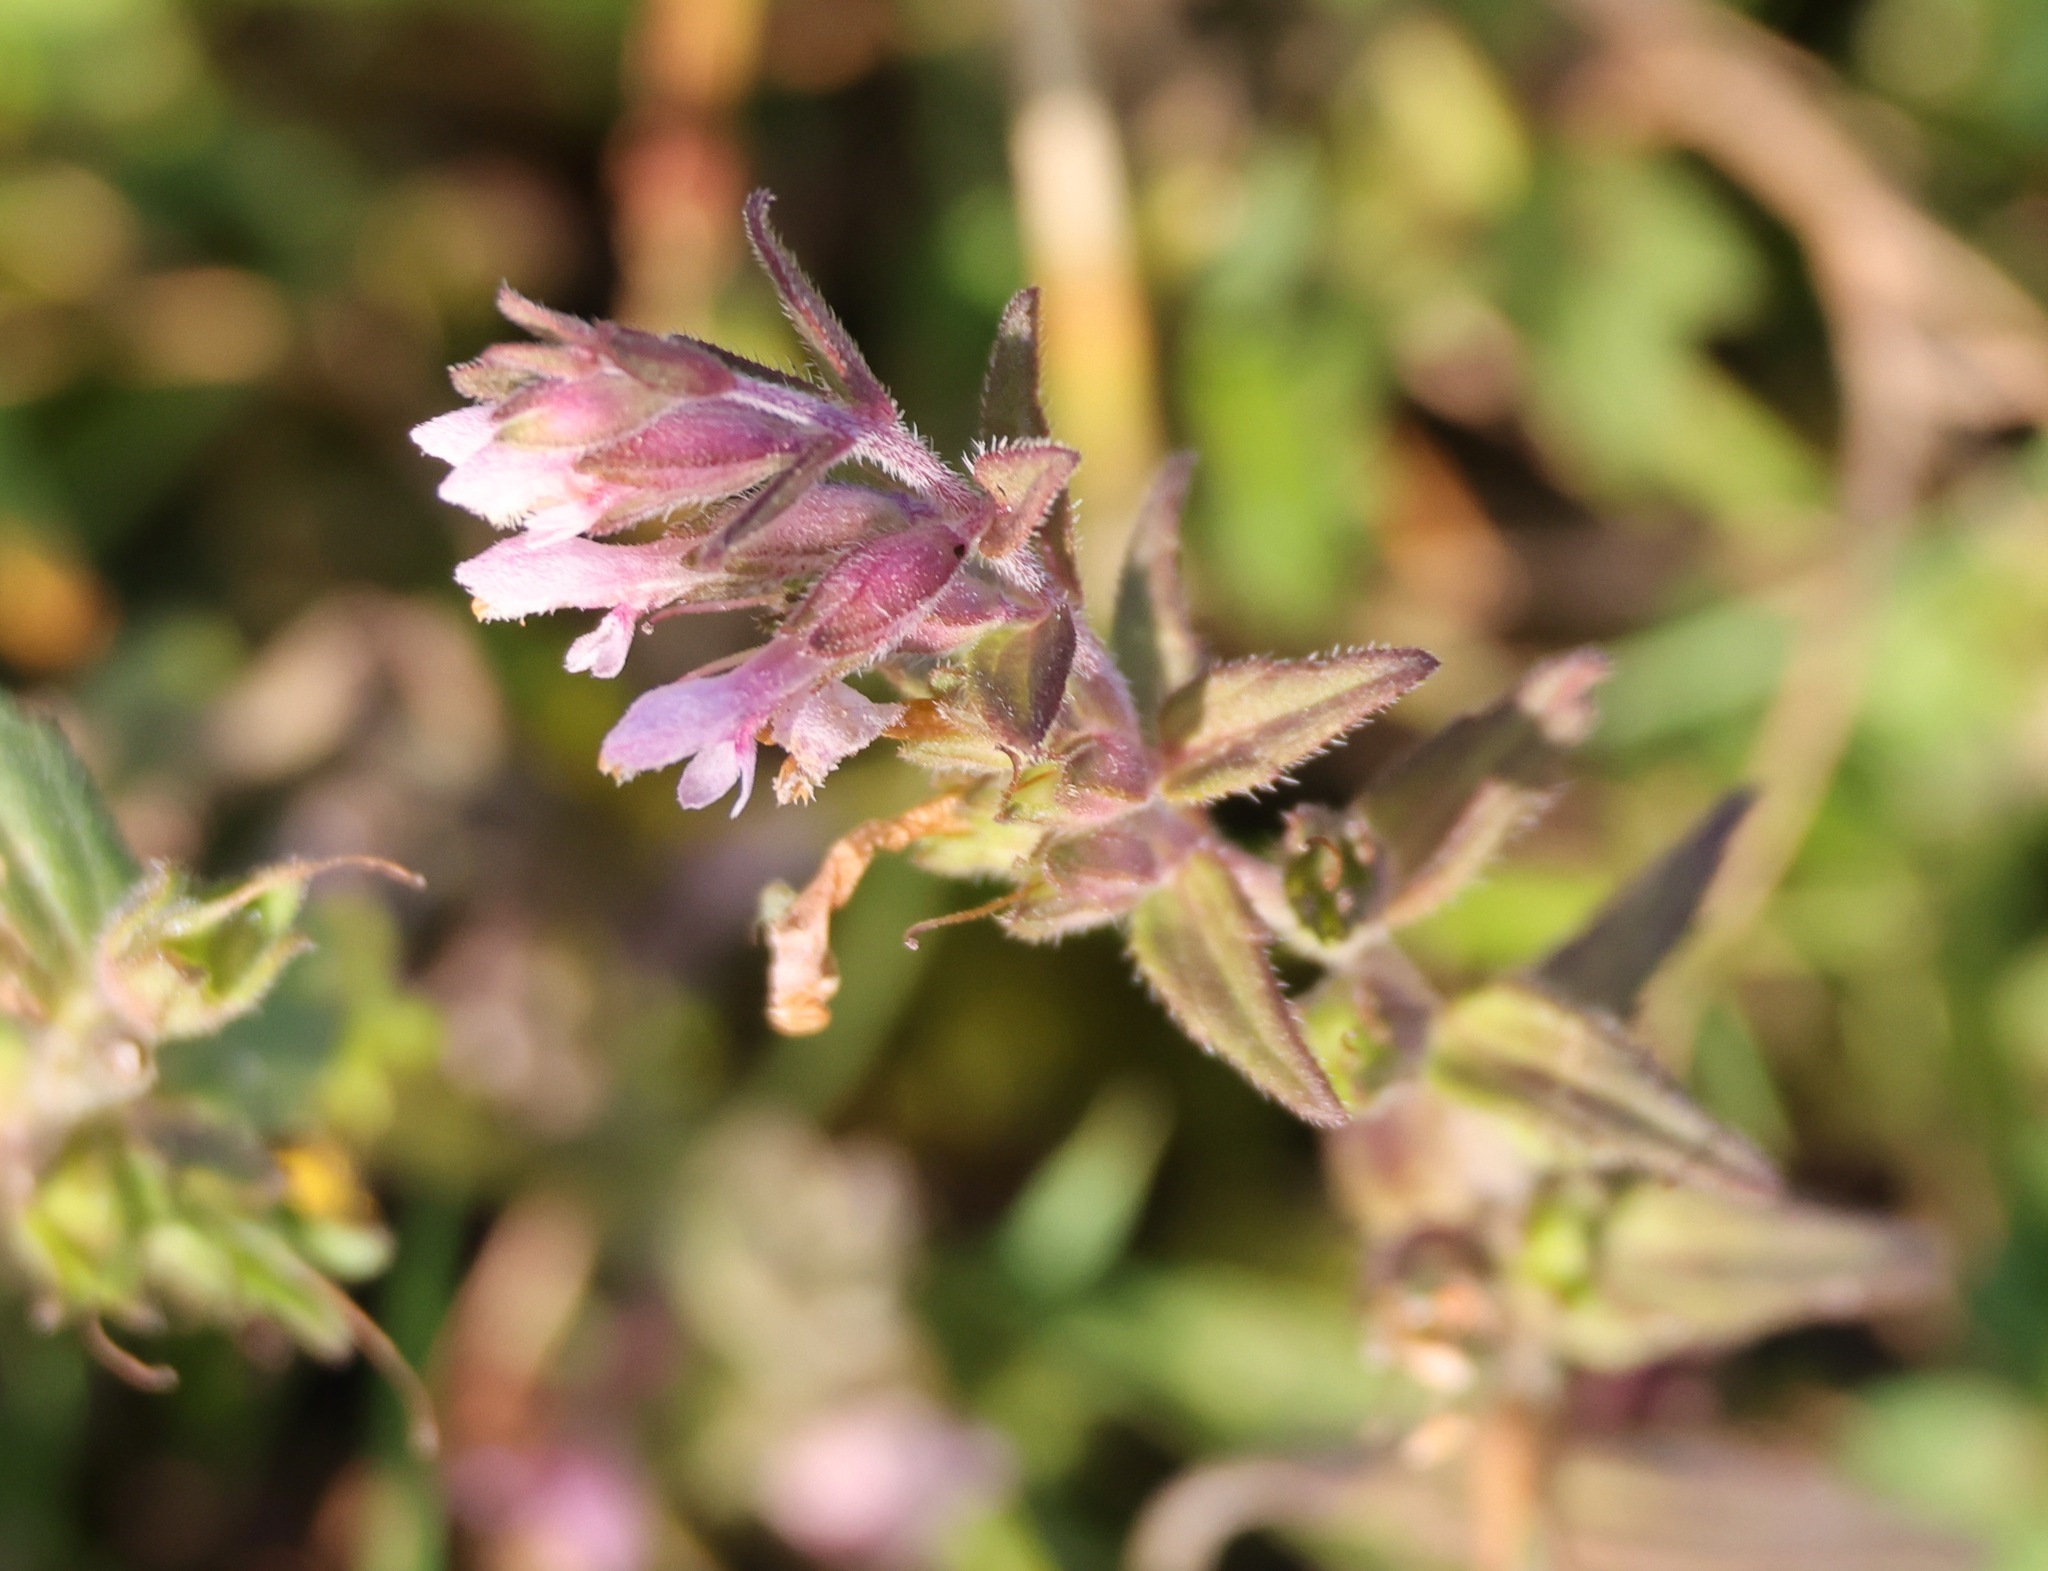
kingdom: Plantae
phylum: Tracheophyta
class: Magnoliopsida
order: Lamiales
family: Orobanchaceae
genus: Odontites
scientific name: Odontites vulgaris
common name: Broomrape
